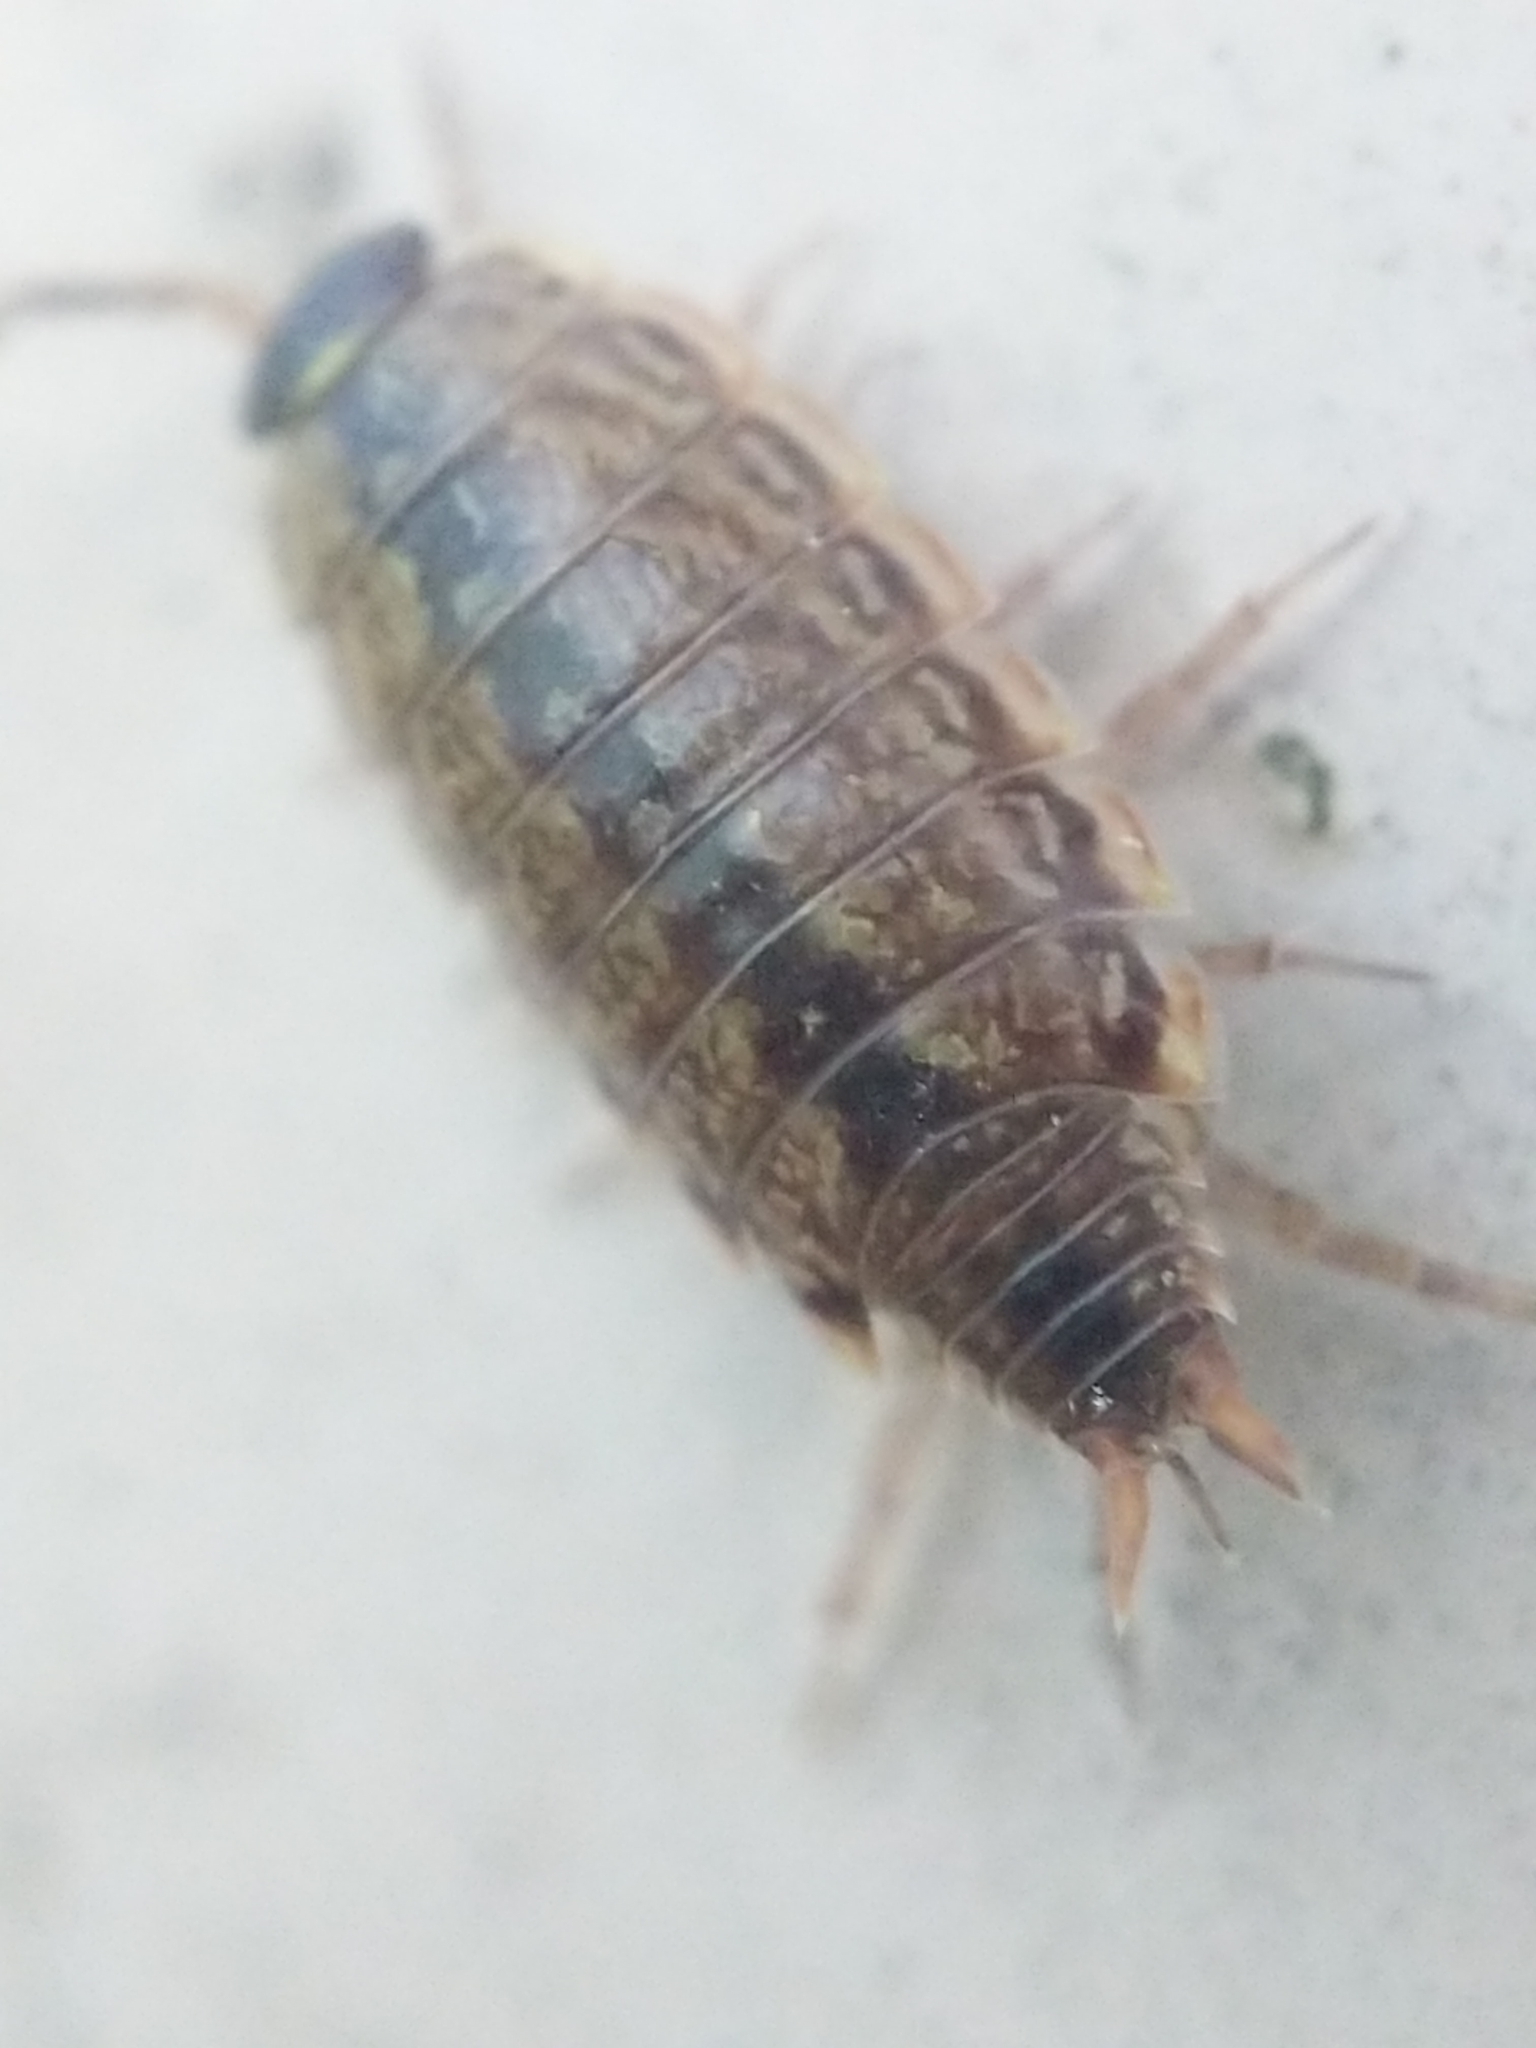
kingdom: Animalia
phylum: Arthropoda
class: Malacostraca
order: Isopoda
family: Philosciidae
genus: Philoscia
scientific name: Philoscia muscorum
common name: Common striped woodlouse
